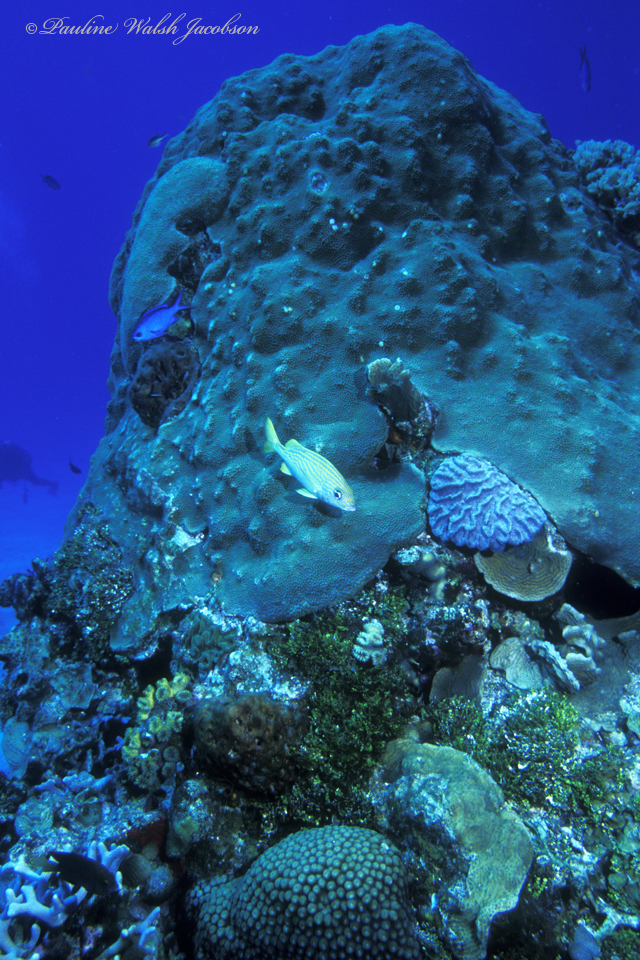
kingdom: Animalia
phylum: Cnidaria
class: Anthozoa
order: Scleractinia
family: Merulinidae
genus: Orbicella
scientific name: Orbicella faveolata
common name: Mountainous star coral
